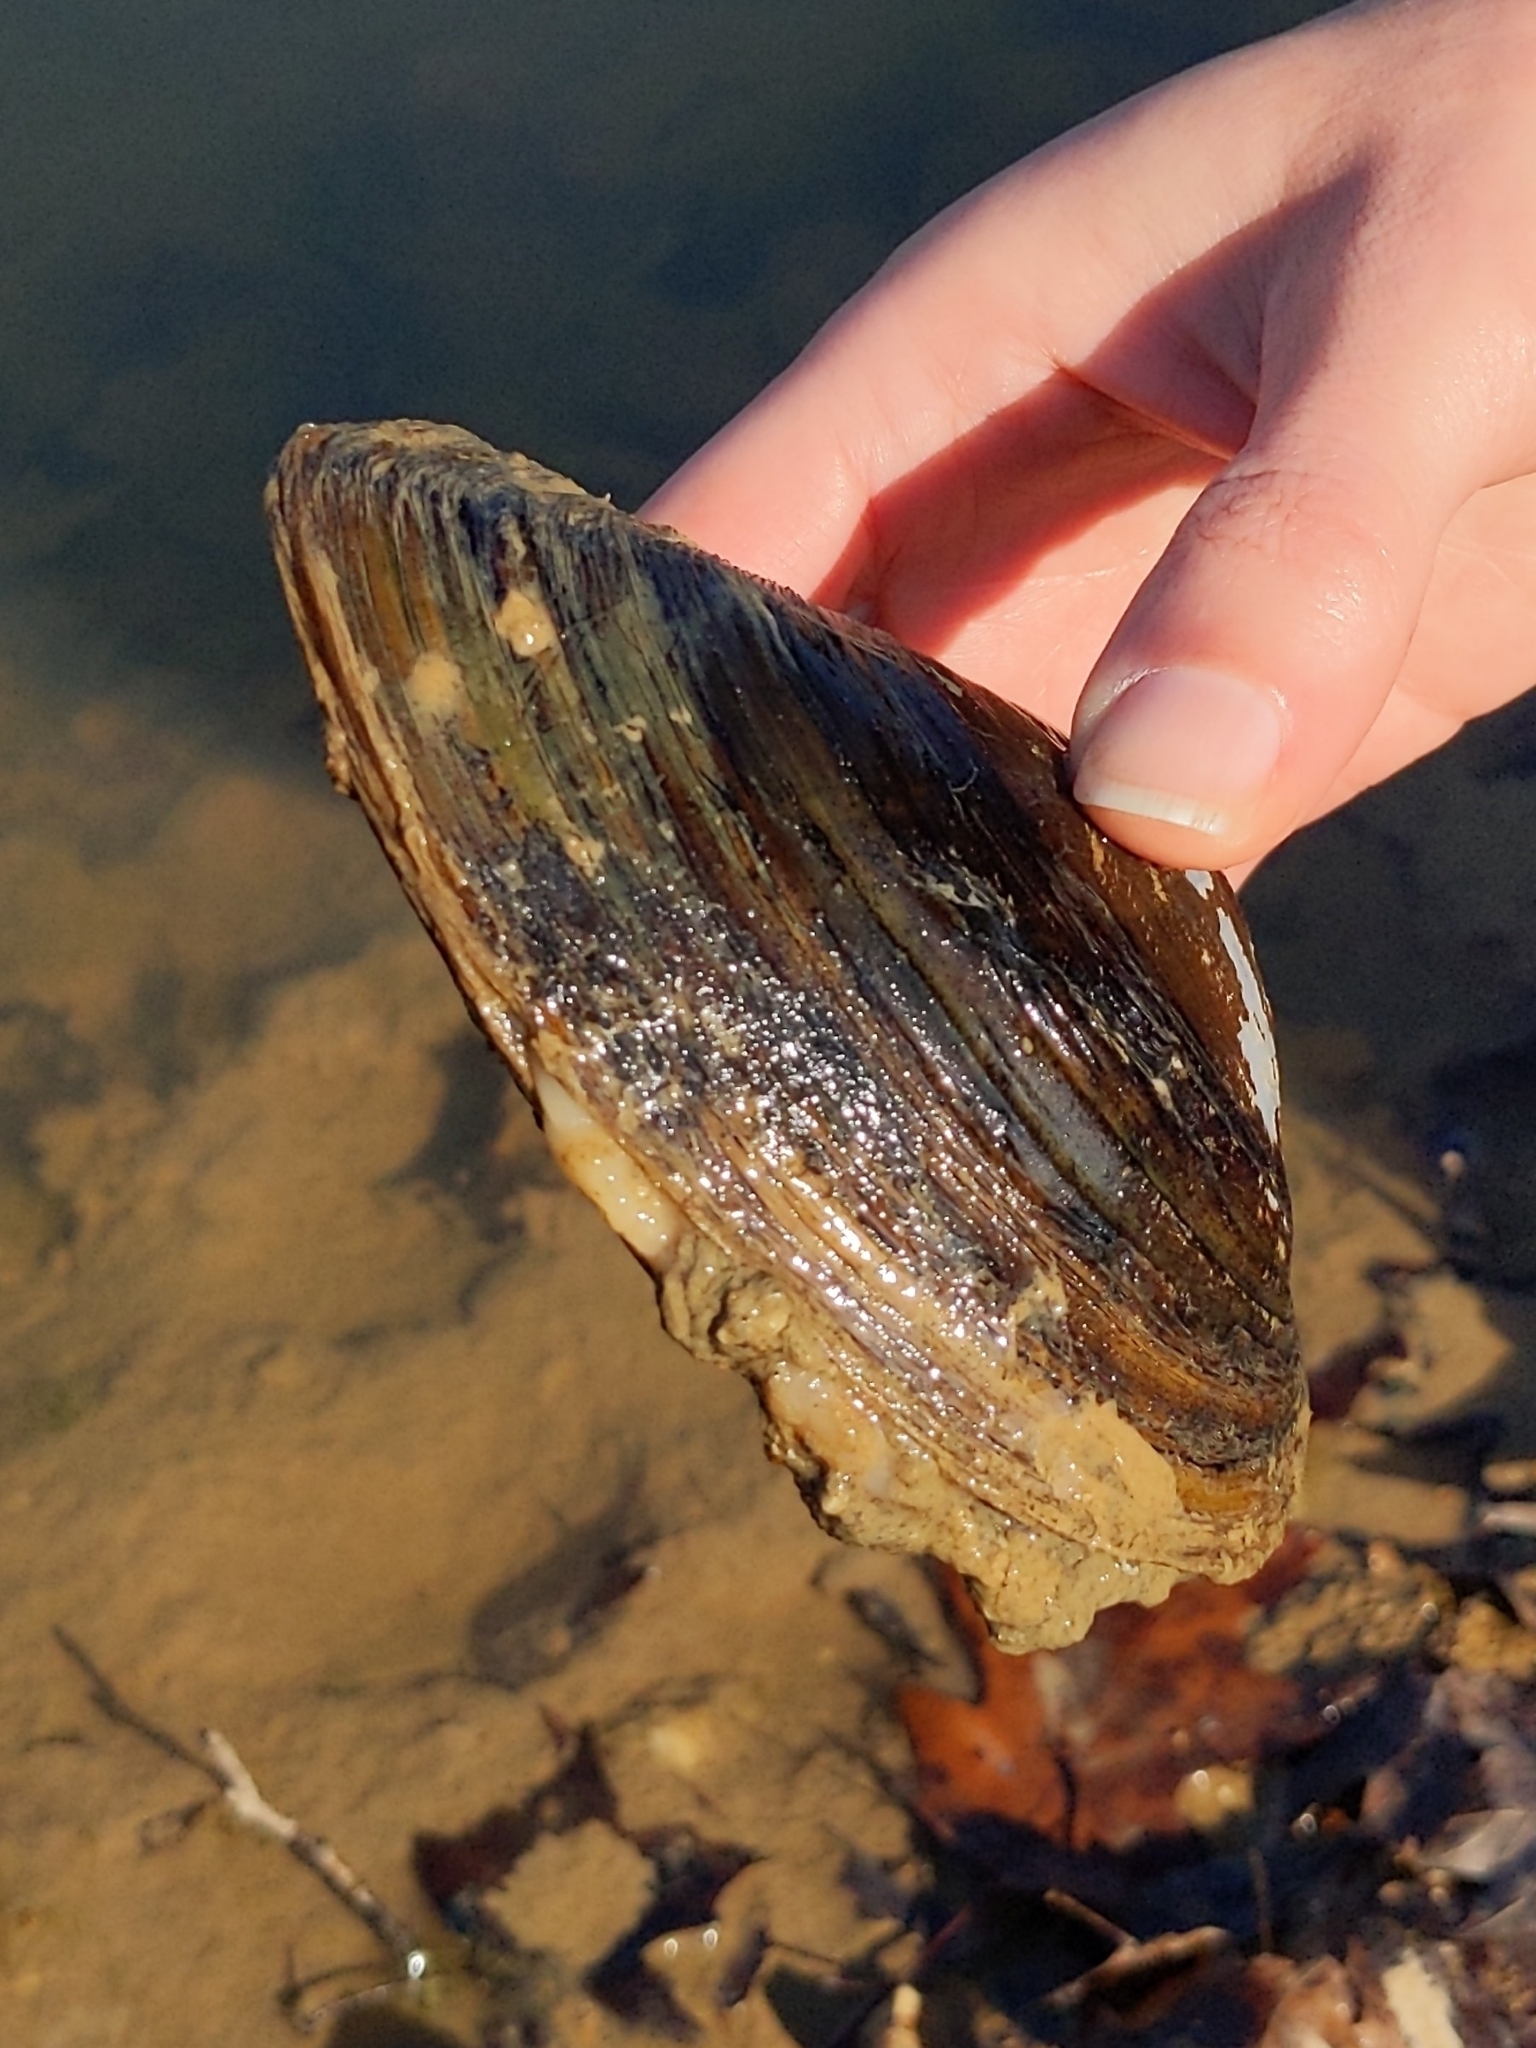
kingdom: Animalia
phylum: Mollusca
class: Bivalvia
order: Unionida
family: Unionidae
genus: Pyganodon
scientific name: Pyganodon grandis
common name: Giant floater
